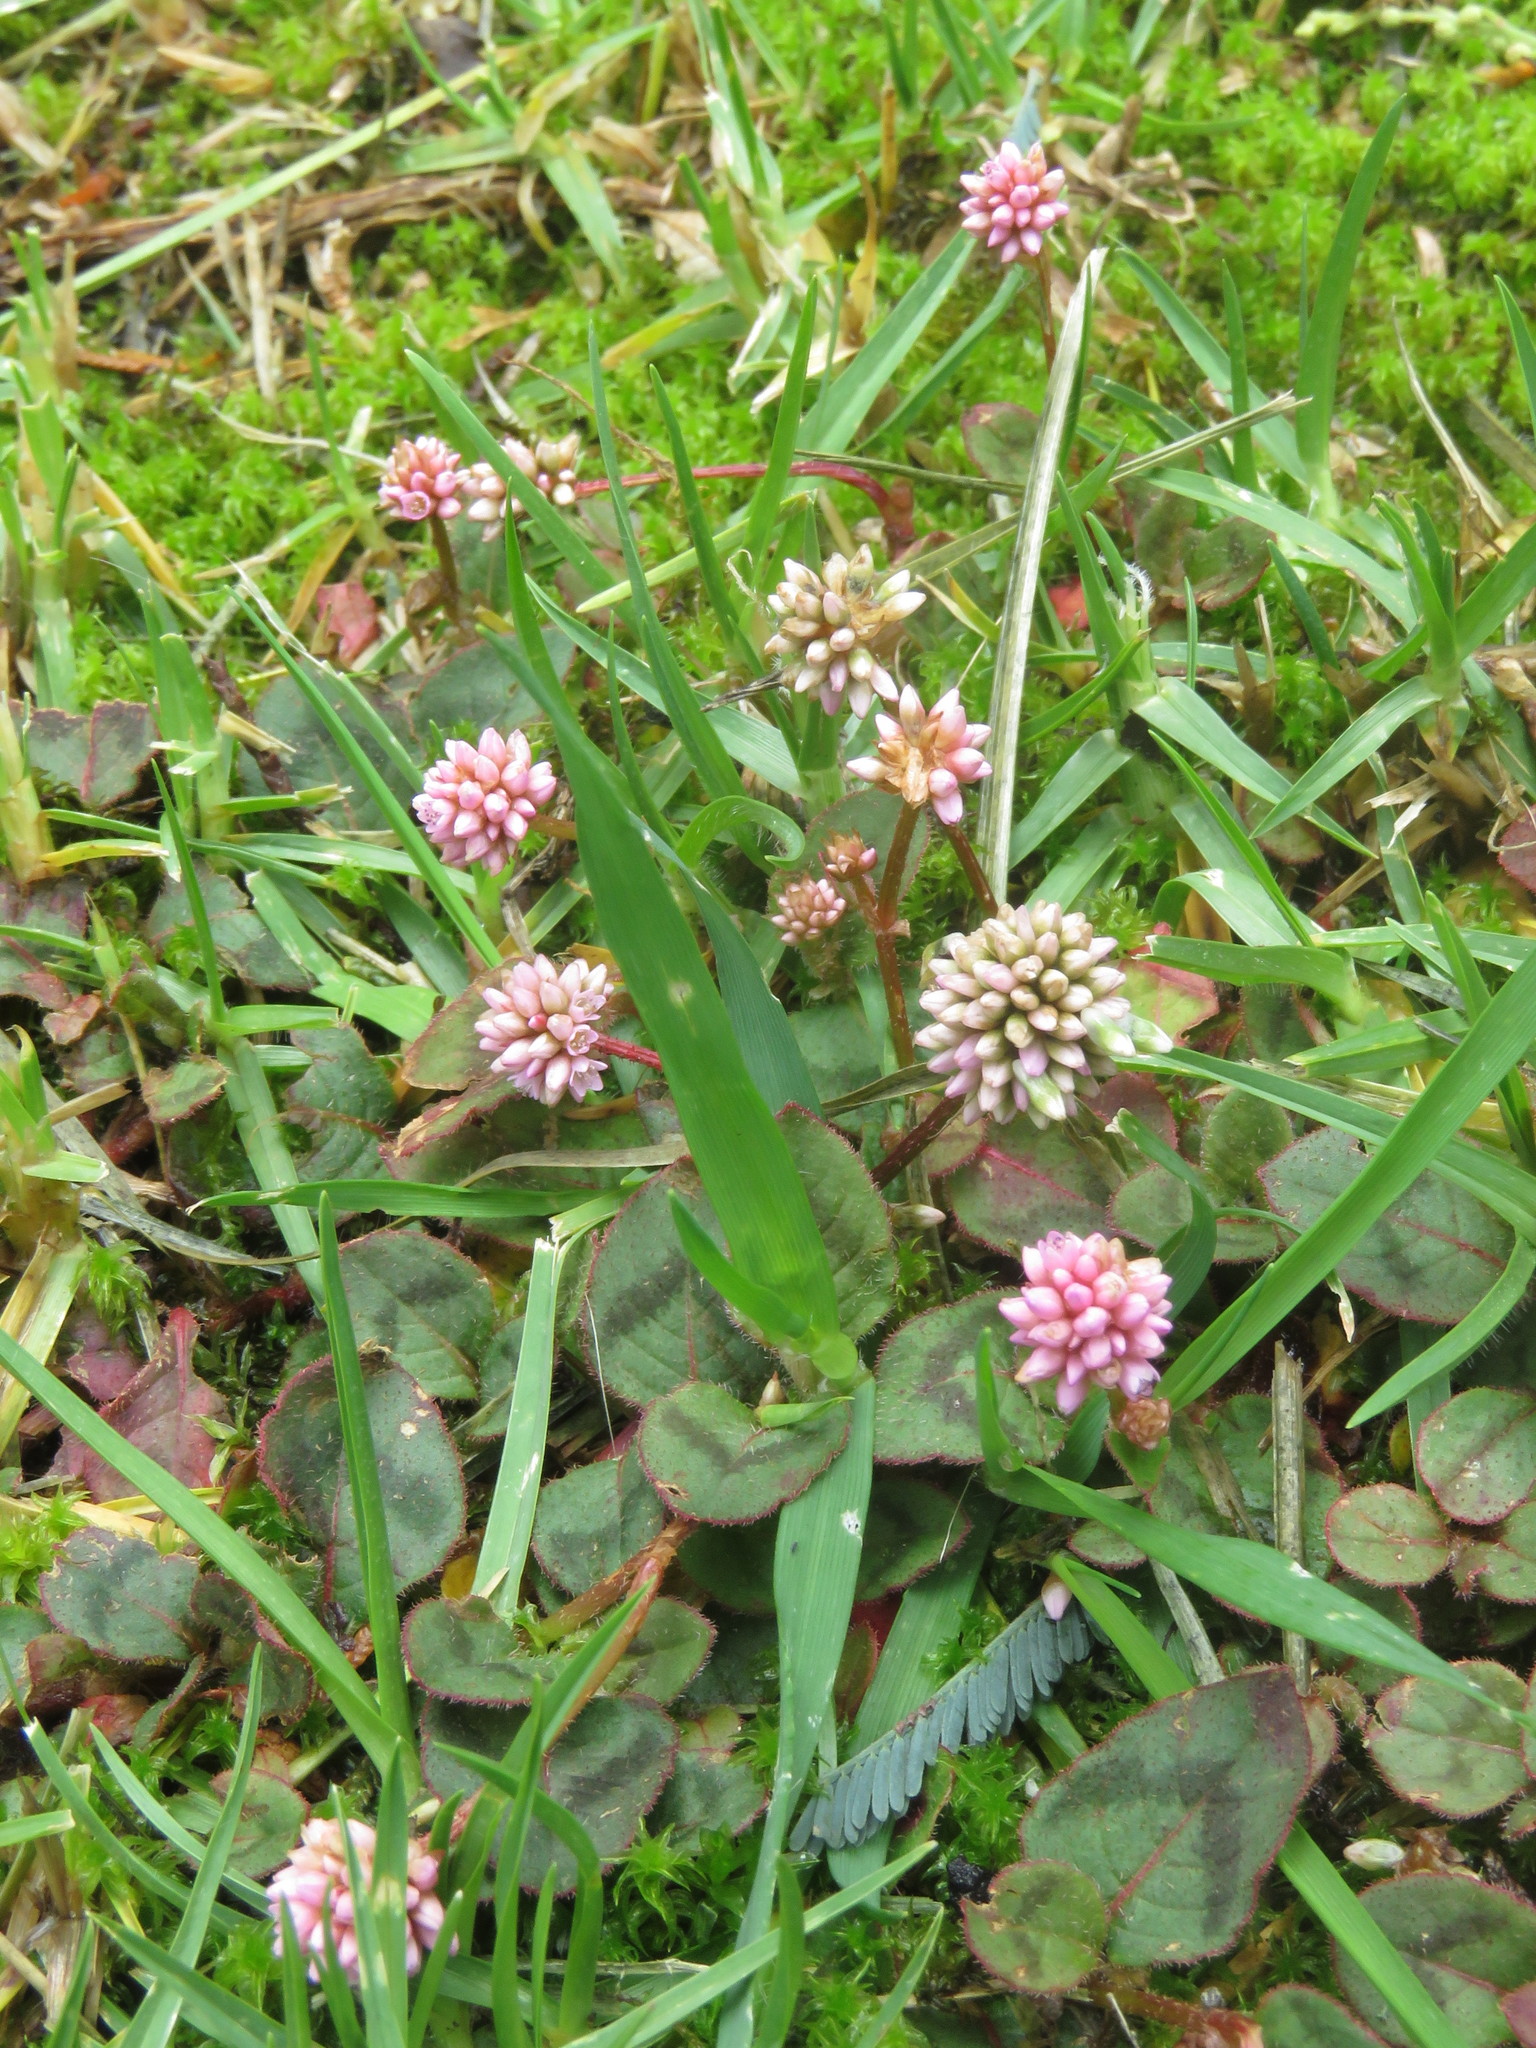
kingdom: Plantae
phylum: Tracheophyta
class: Magnoliopsida
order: Caryophyllales
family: Polygonaceae
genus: Persicaria
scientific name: Persicaria capitata
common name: Pinkhead smartweed
